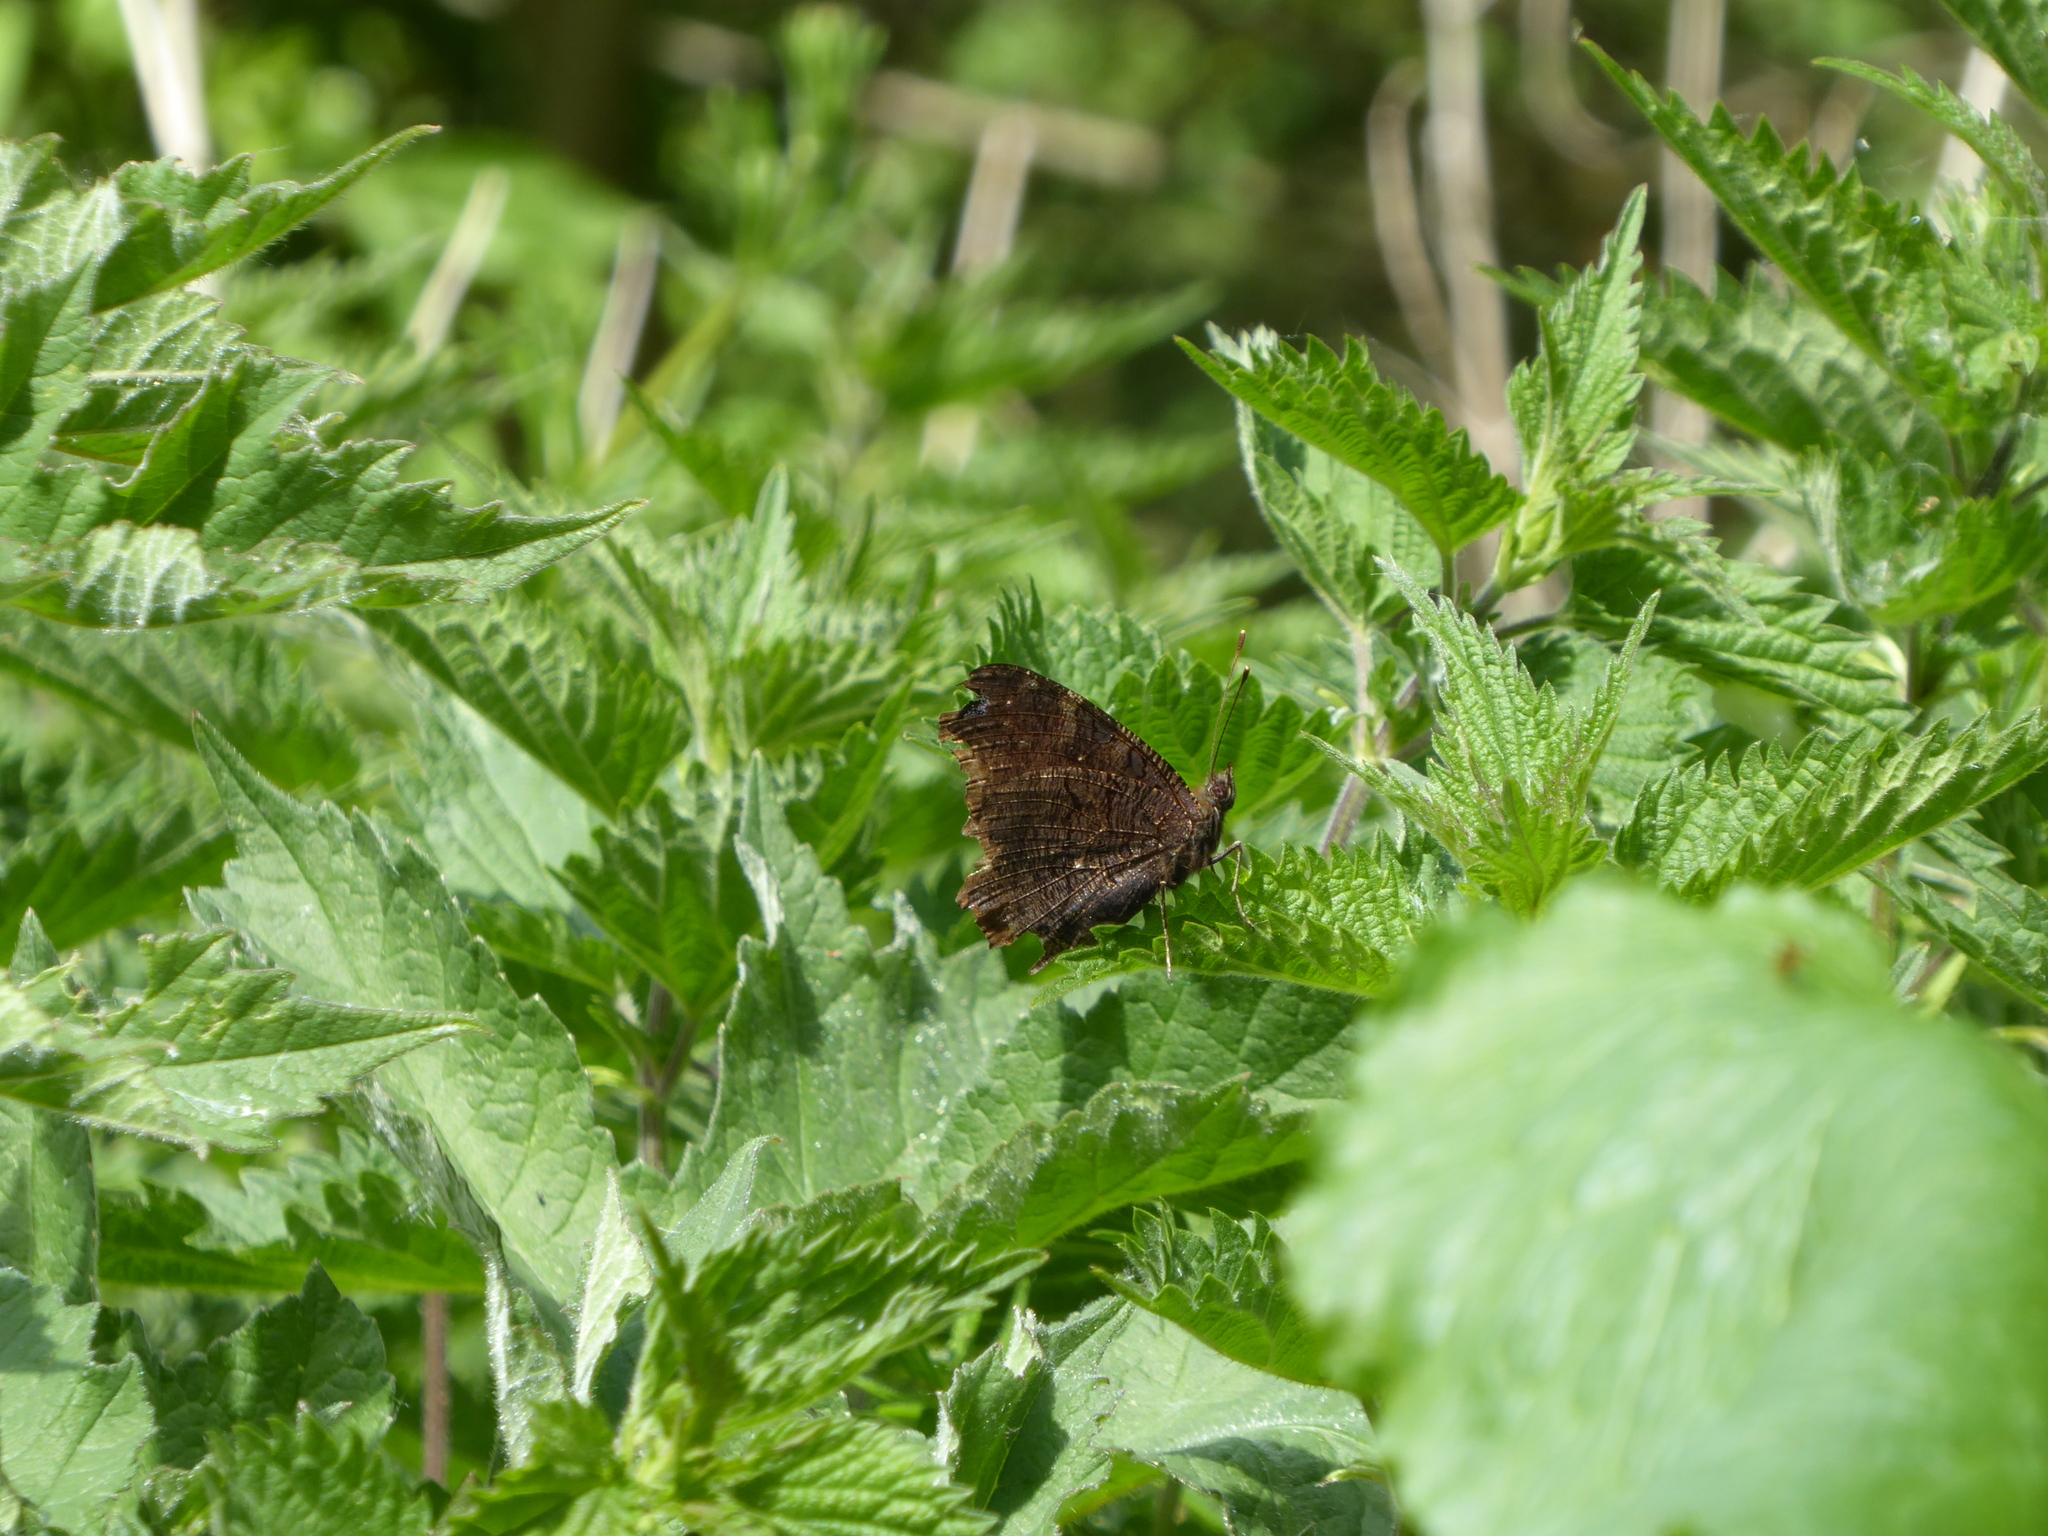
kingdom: Animalia
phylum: Arthropoda
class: Insecta
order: Lepidoptera
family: Nymphalidae
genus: Aglais
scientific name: Aglais io
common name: Peacock
